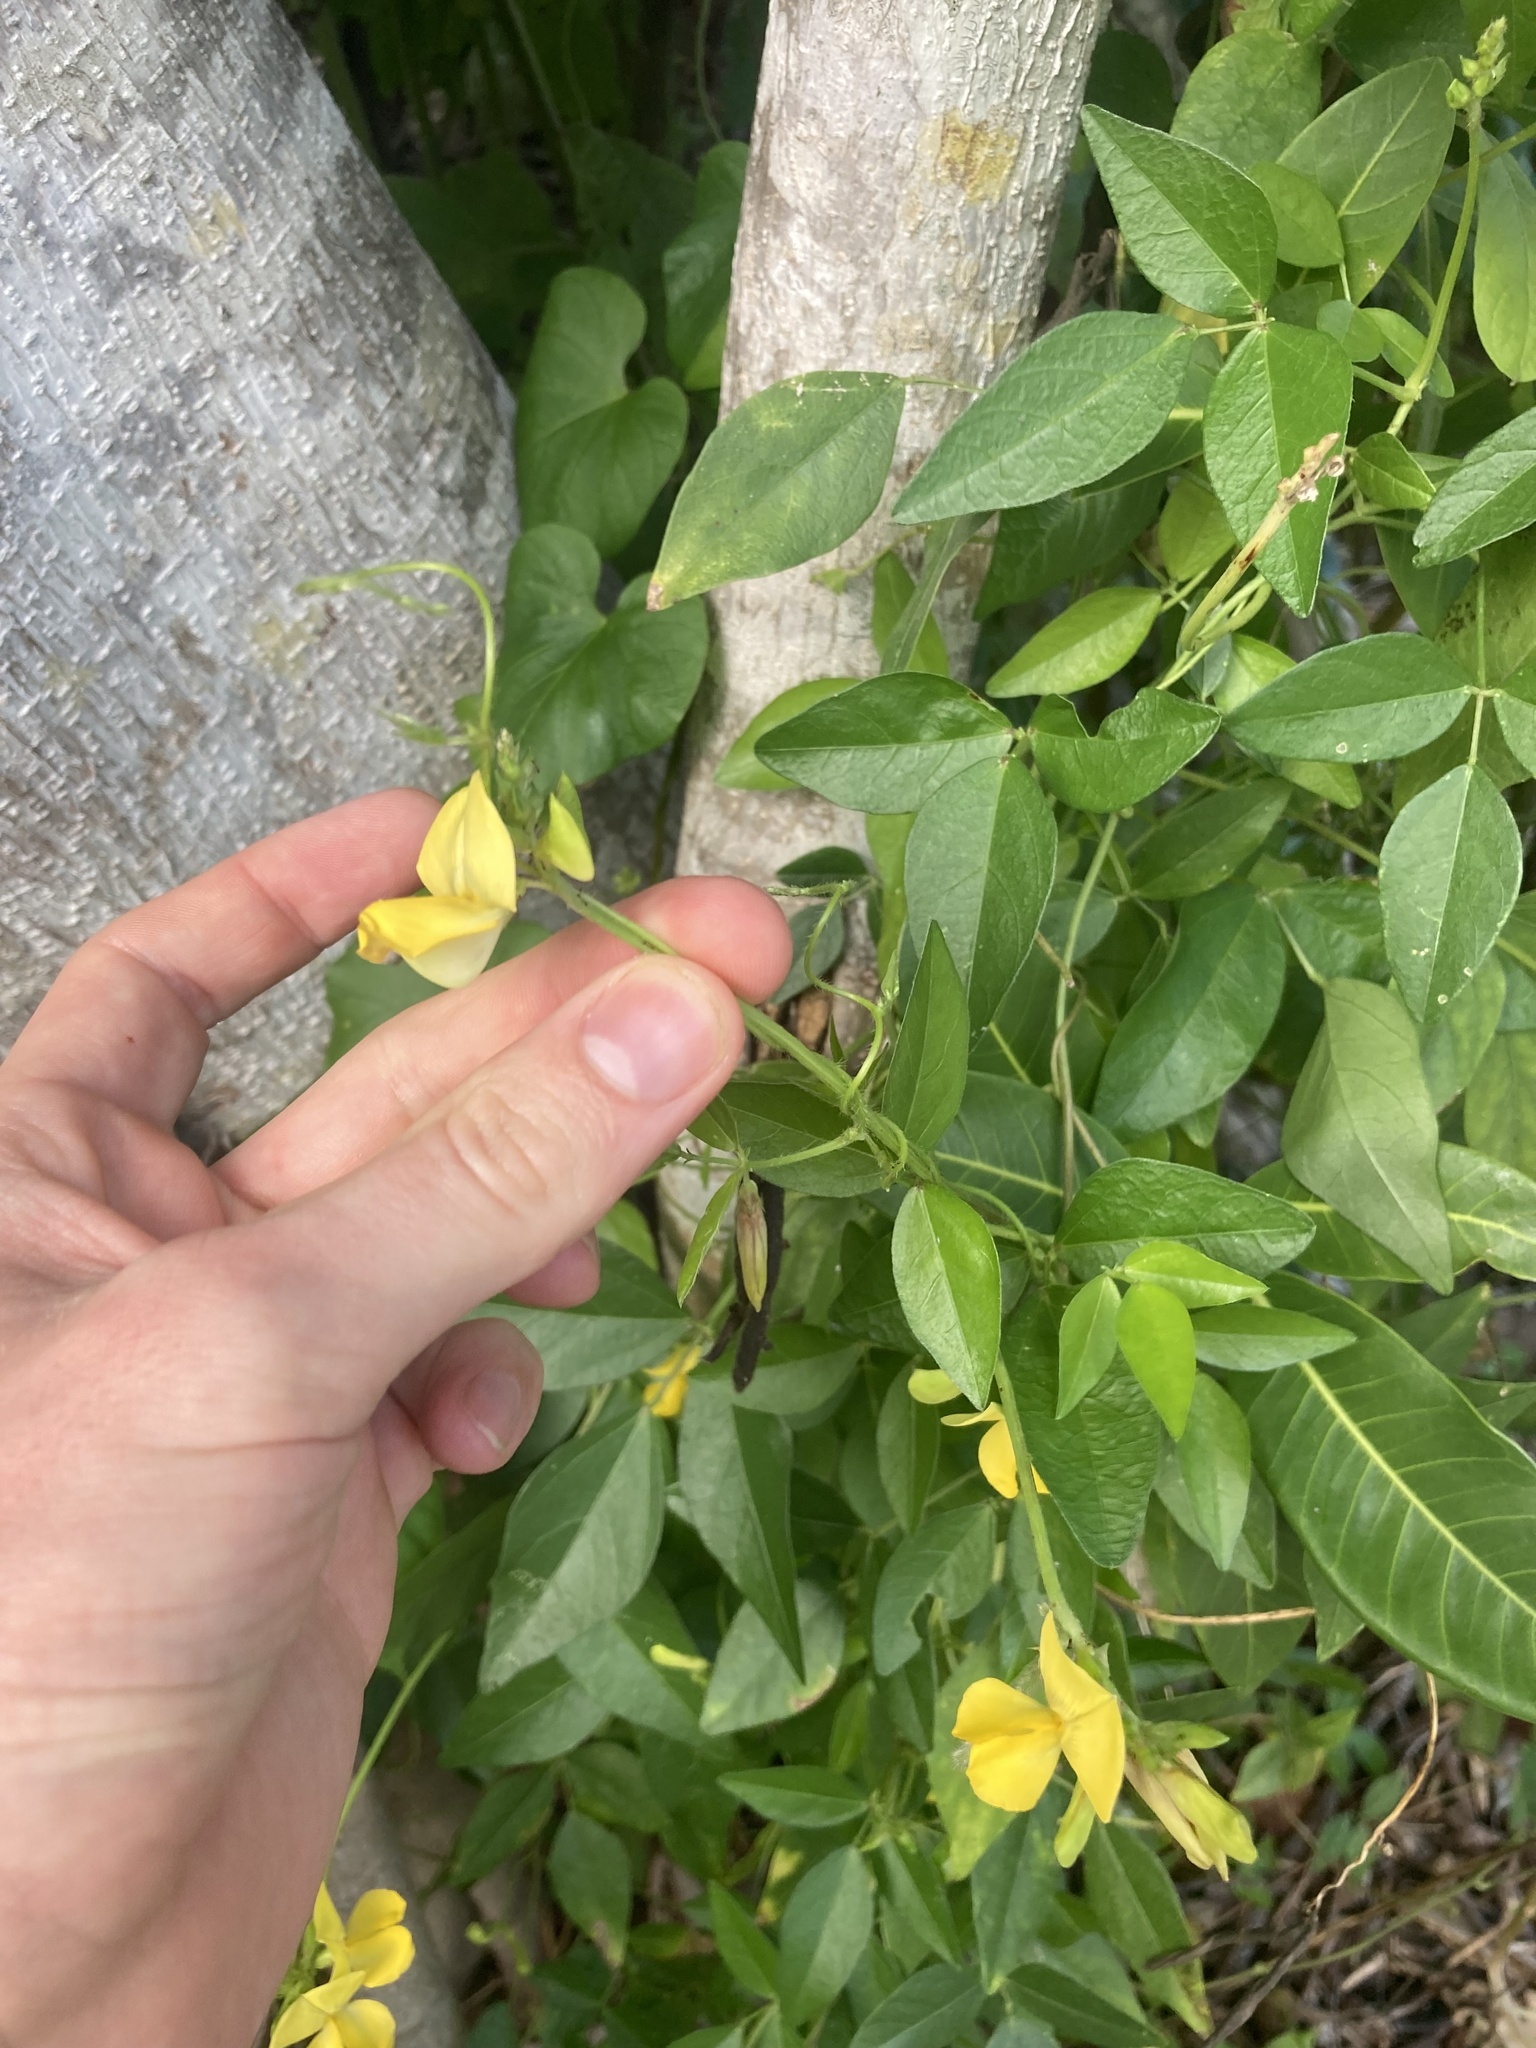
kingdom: Plantae
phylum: Tracheophyta
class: Magnoliopsida
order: Fabales
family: Fabaceae
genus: Vigna
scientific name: Vigna luteola
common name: Hairypod cowpea
